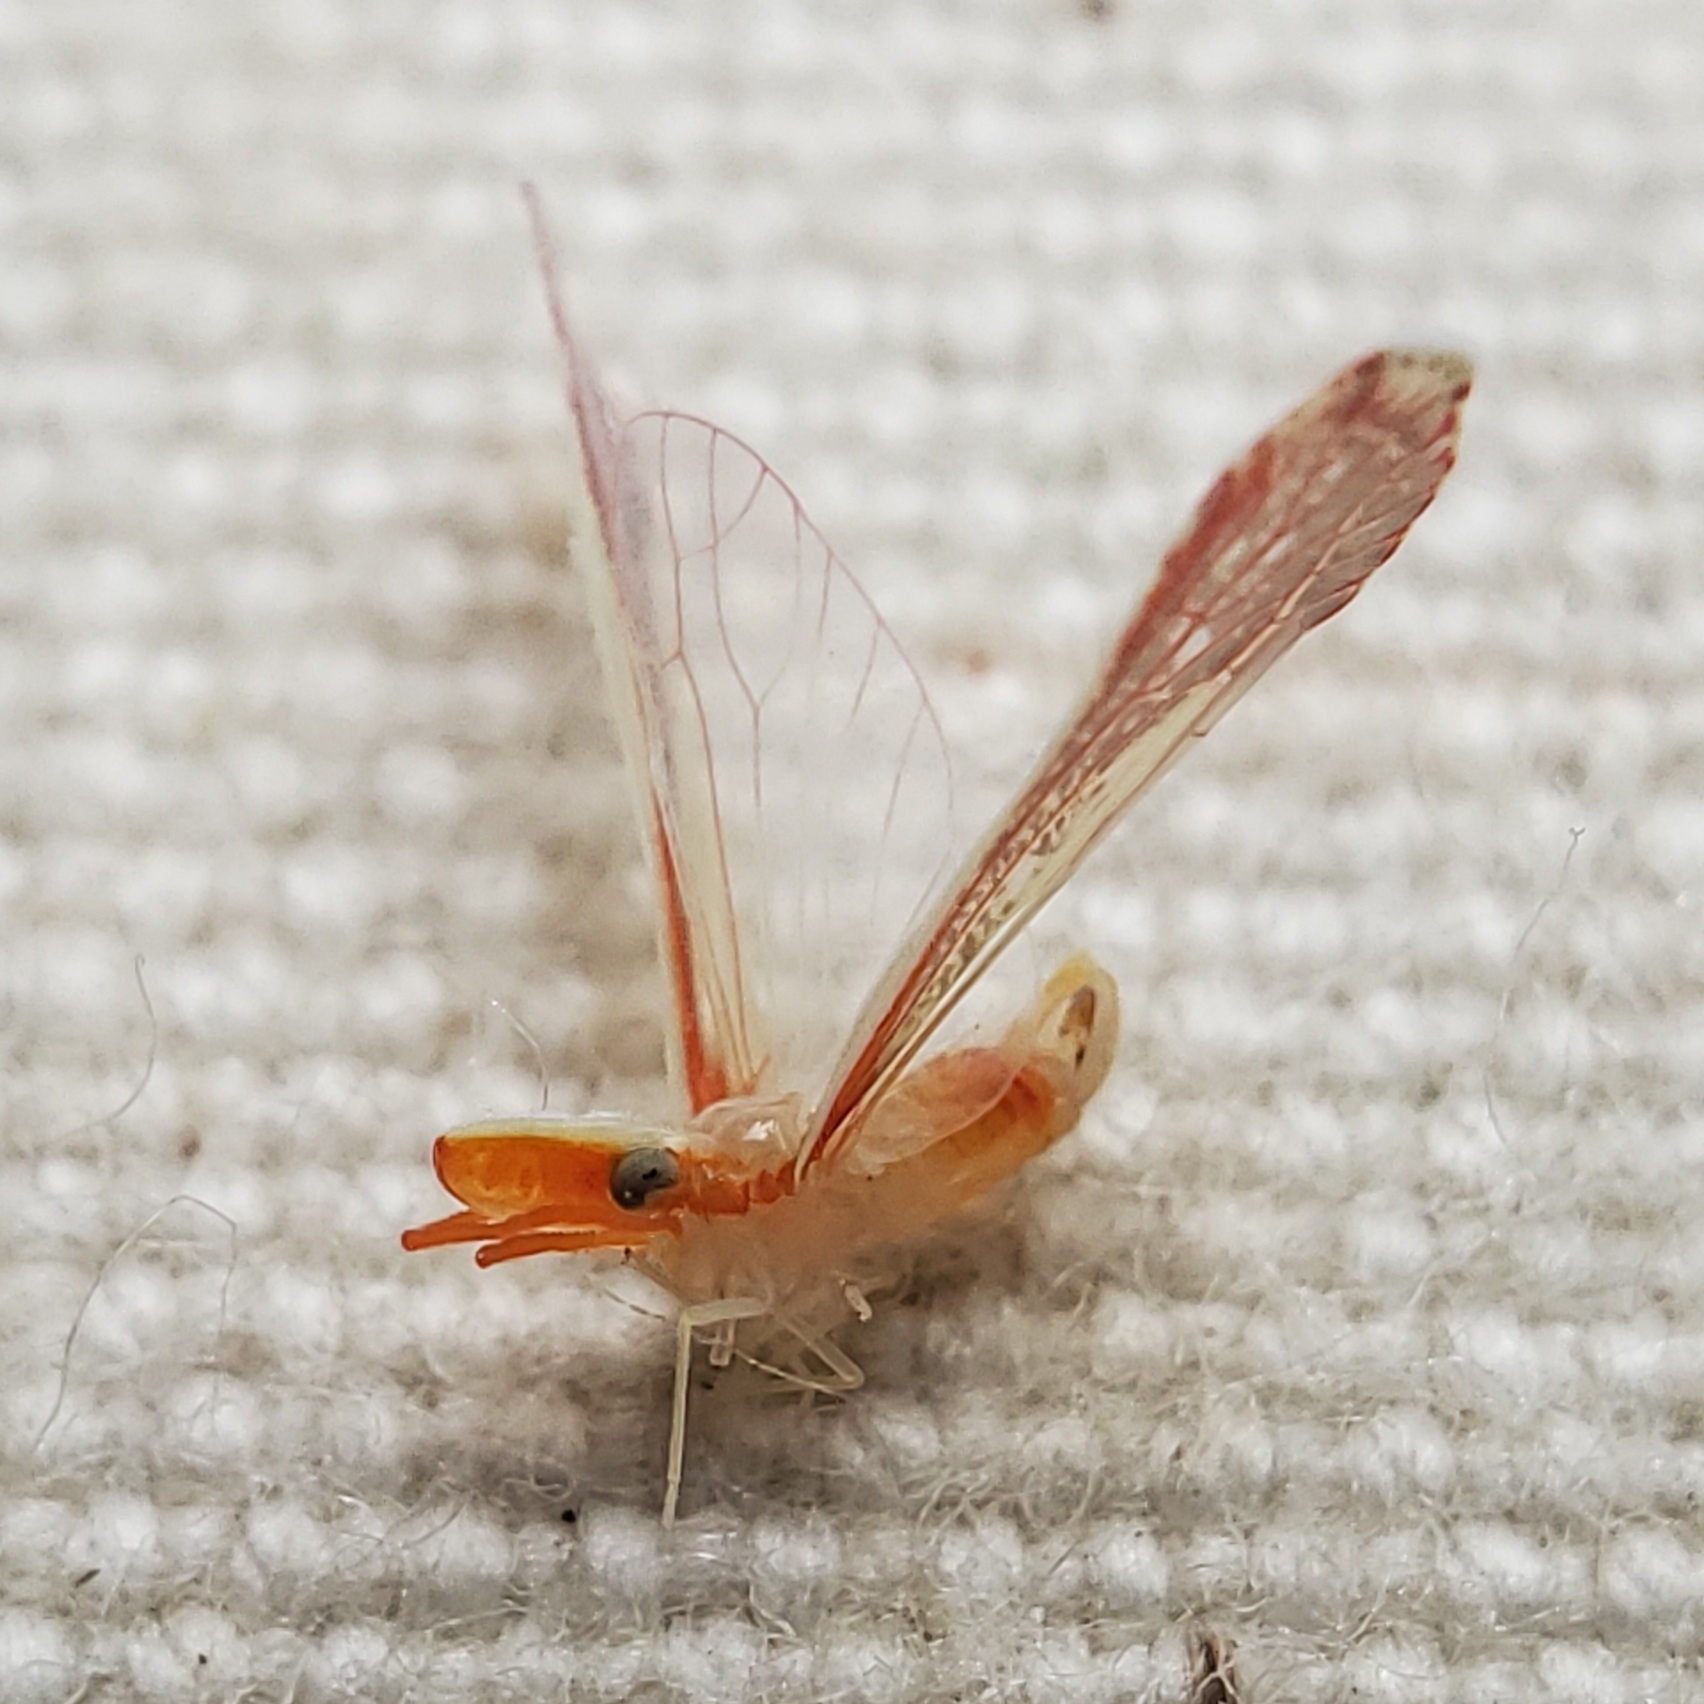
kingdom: Animalia
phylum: Arthropoda
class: Insecta
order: Hemiptera
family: Derbidae
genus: Shellenius
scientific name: Shellenius ballii
